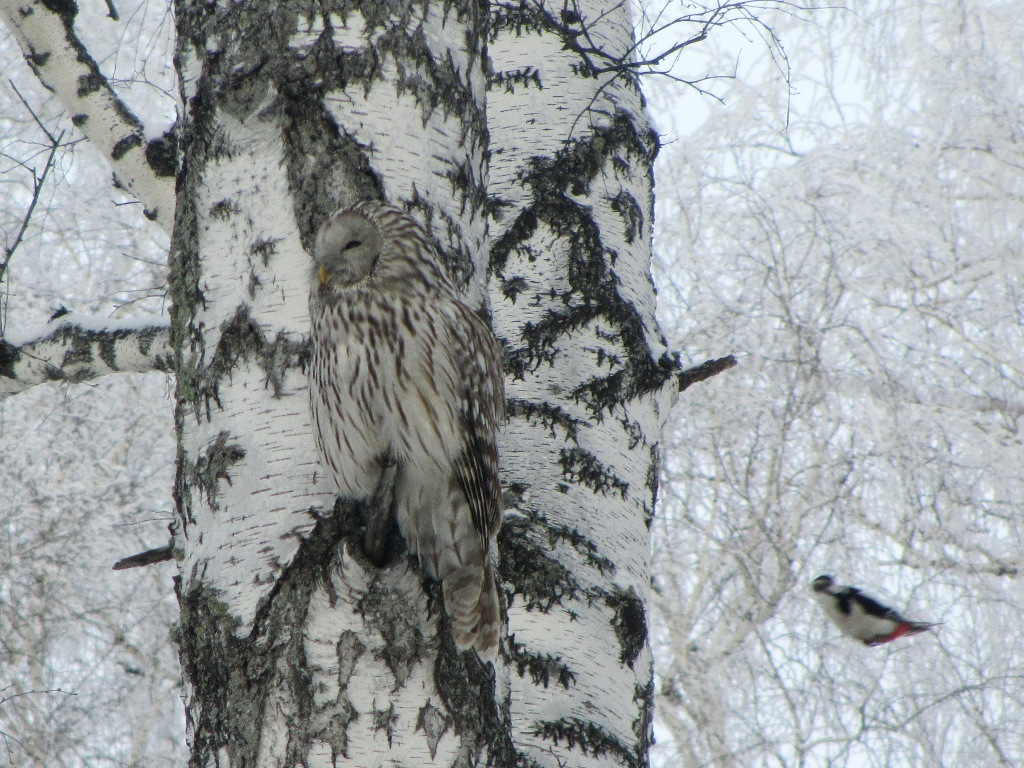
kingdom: Animalia
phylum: Chordata
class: Aves
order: Strigiformes
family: Strigidae
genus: Strix
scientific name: Strix uralensis
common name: Ural owl
